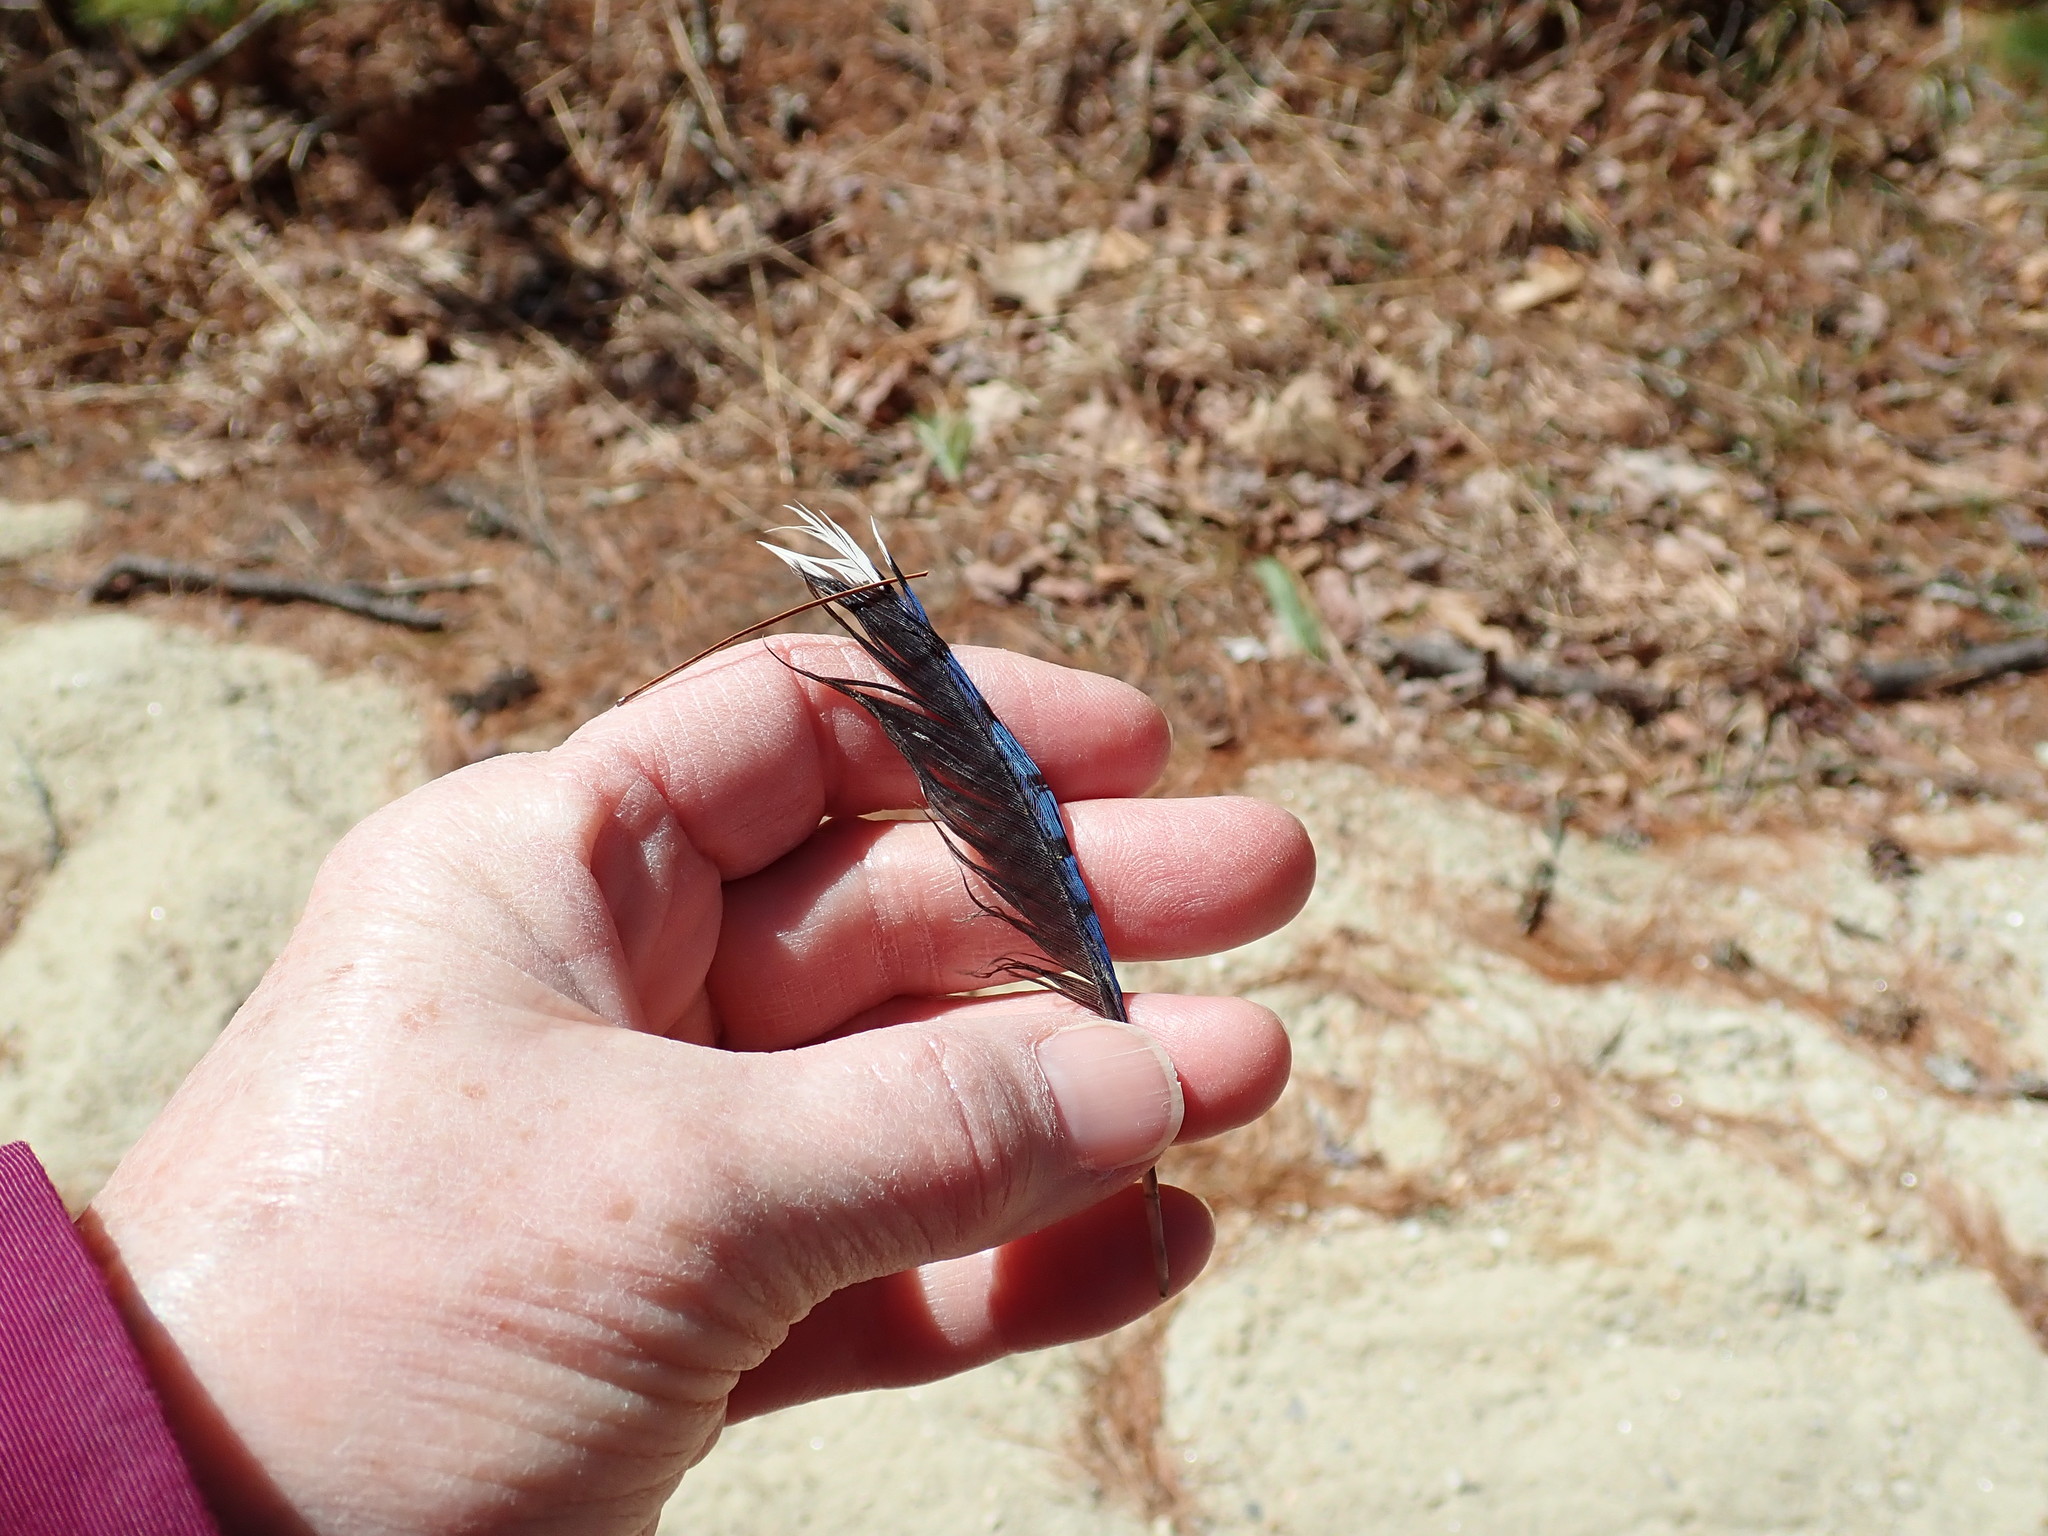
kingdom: Animalia
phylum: Chordata
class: Aves
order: Passeriformes
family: Corvidae
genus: Cyanocitta
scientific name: Cyanocitta cristata
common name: Blue jay
